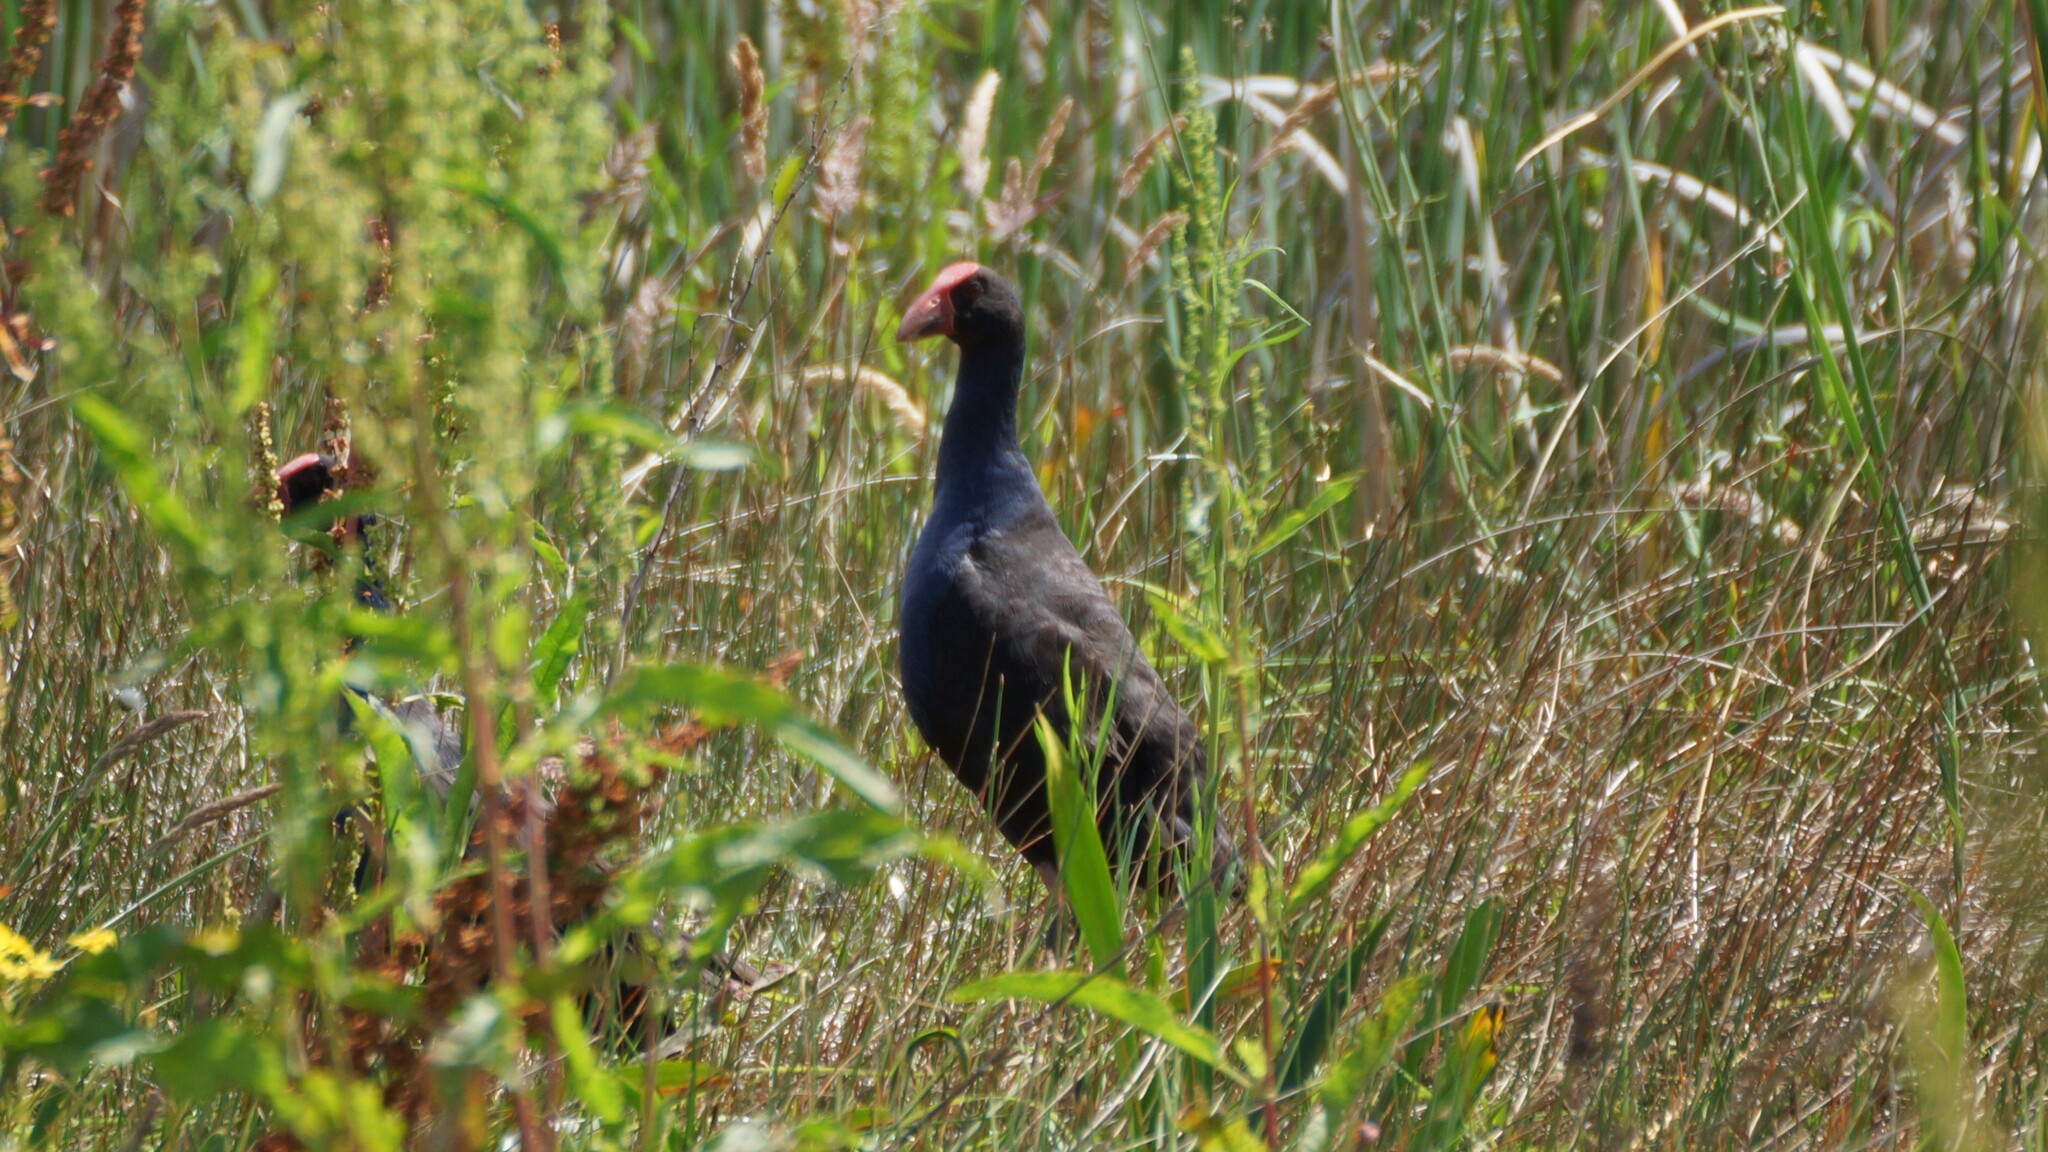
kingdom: Animalia
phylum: Chordata
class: Aves
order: Gruiformes
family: Rallidae
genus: Porphyrio
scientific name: Porphyrio melanotus
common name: Australasian swamphen
